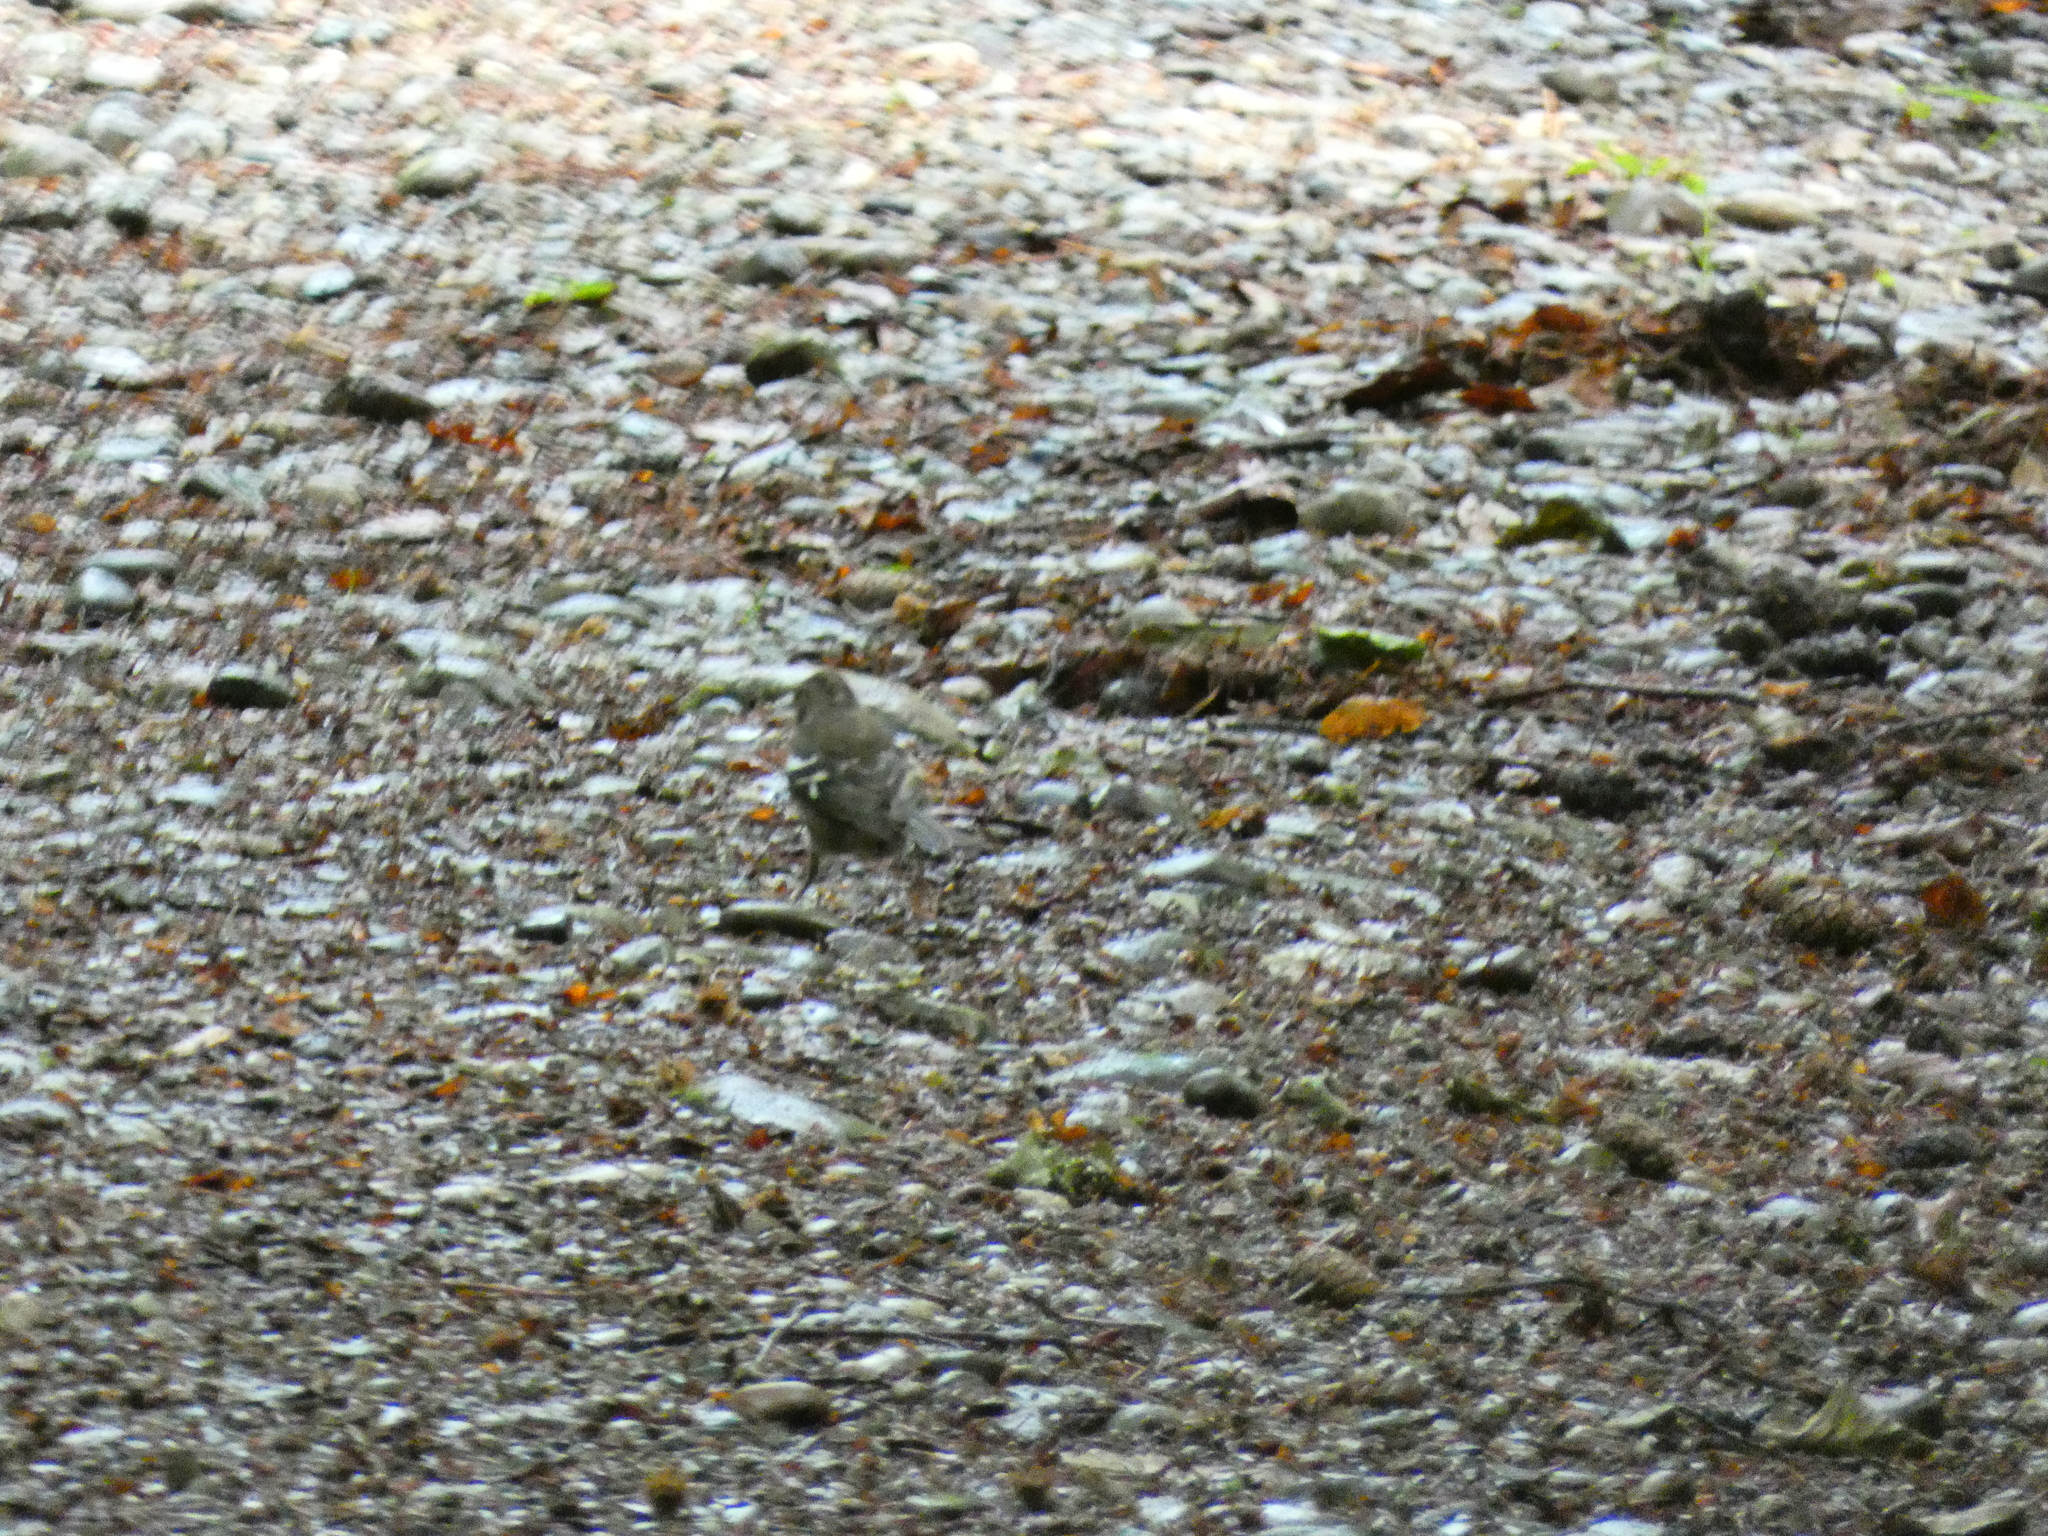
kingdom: Animalia
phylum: Chordata
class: Aves
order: Passeriformes
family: Fringillidae
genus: Fringilla
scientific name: Fringilla coelebs
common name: Common chaffinch
